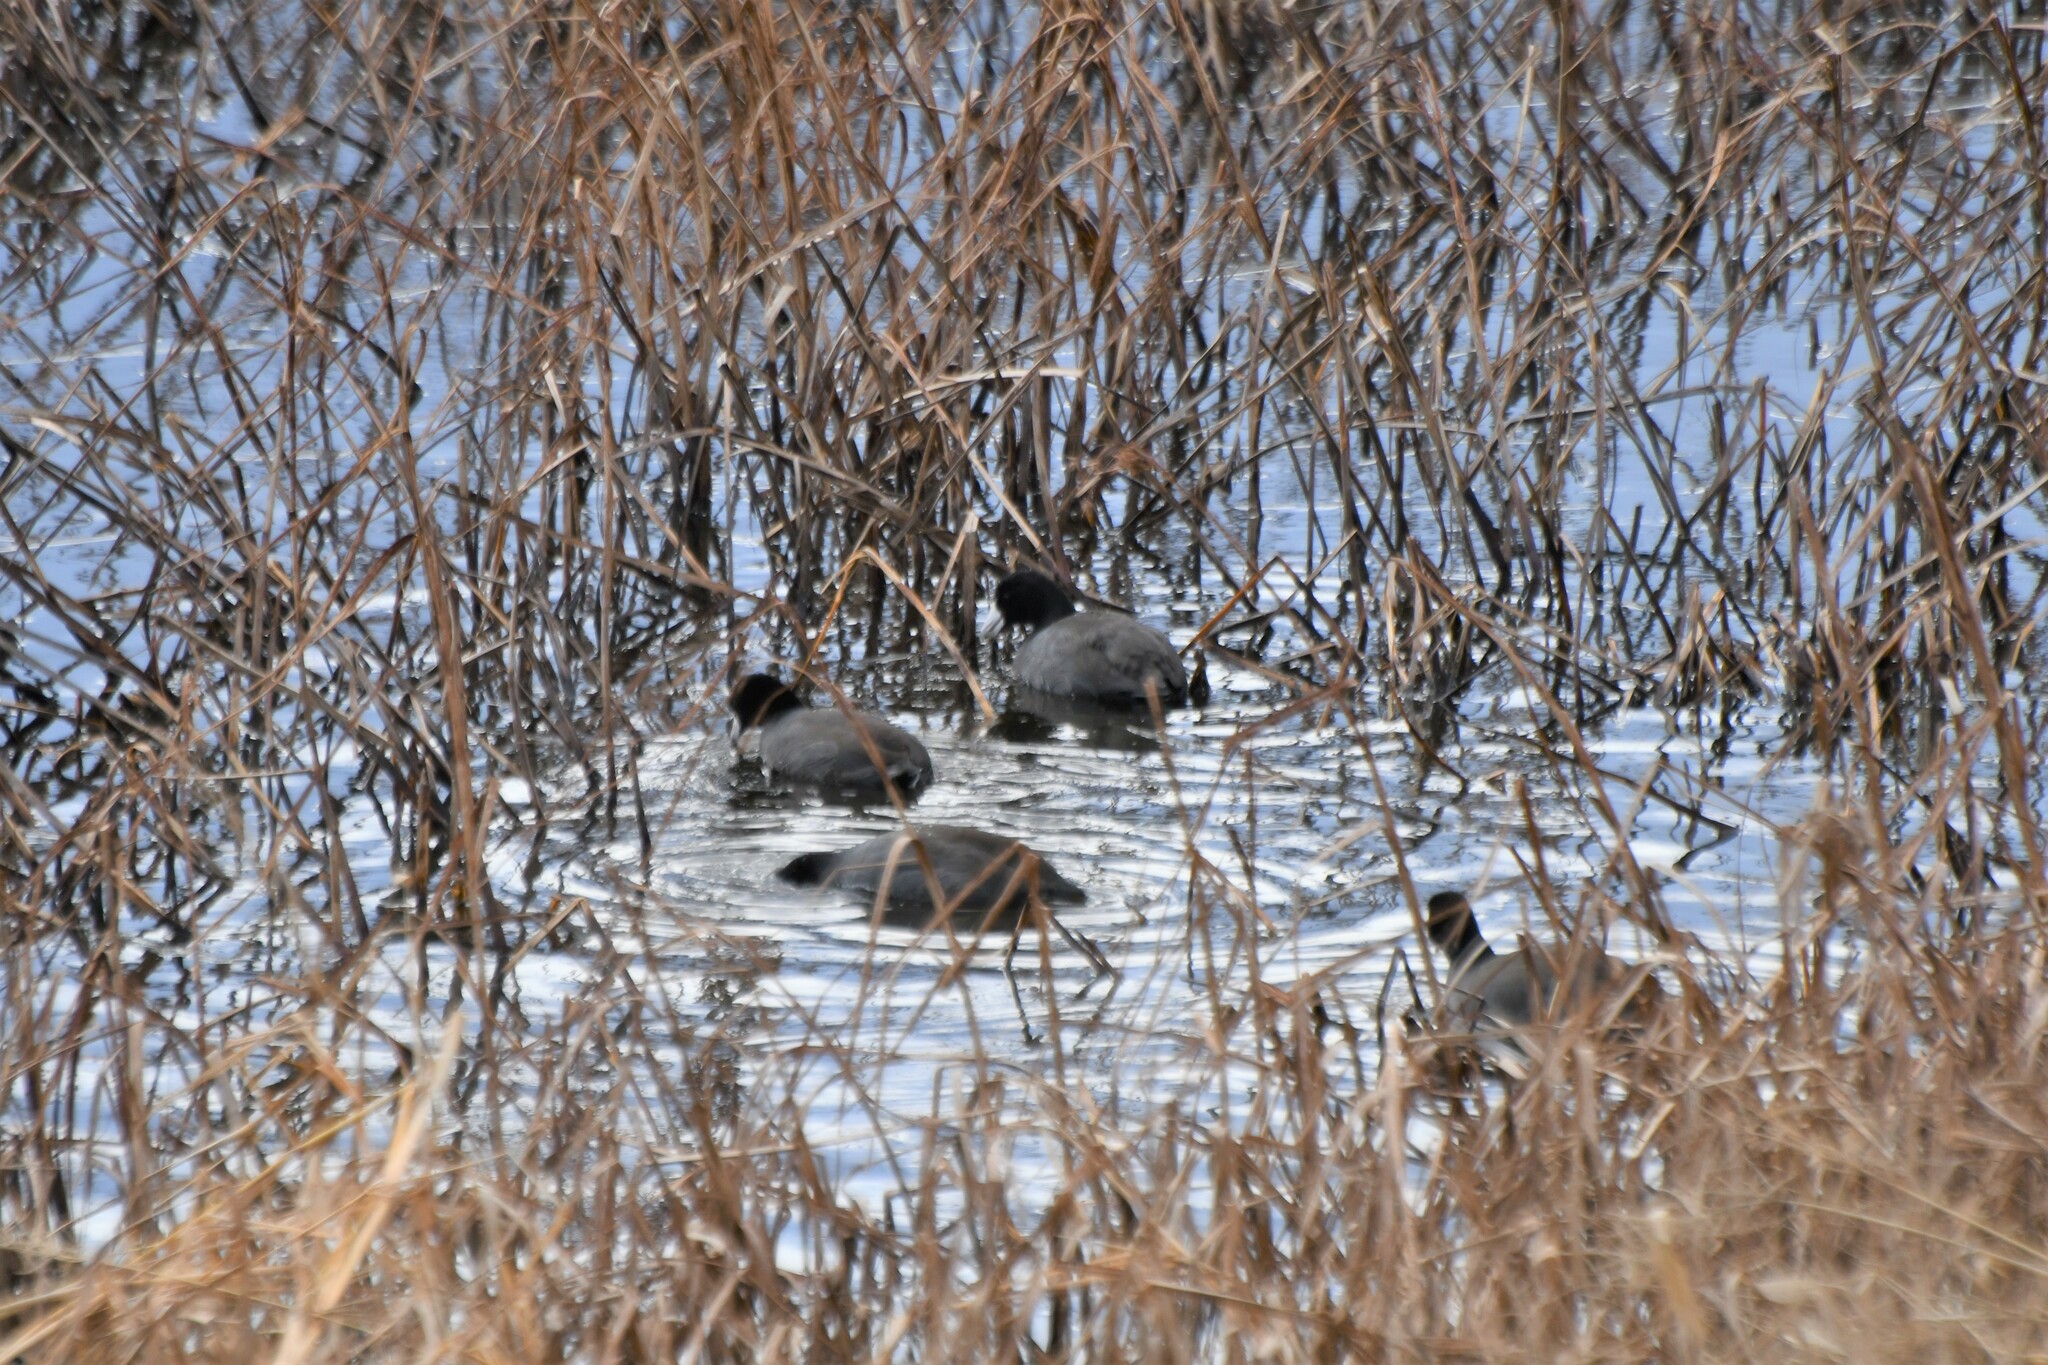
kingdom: Animalia
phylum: Chordata
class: Aves
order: Gruiformes
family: Rallidae
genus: Fulica
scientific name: Fulica americana
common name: American coot
